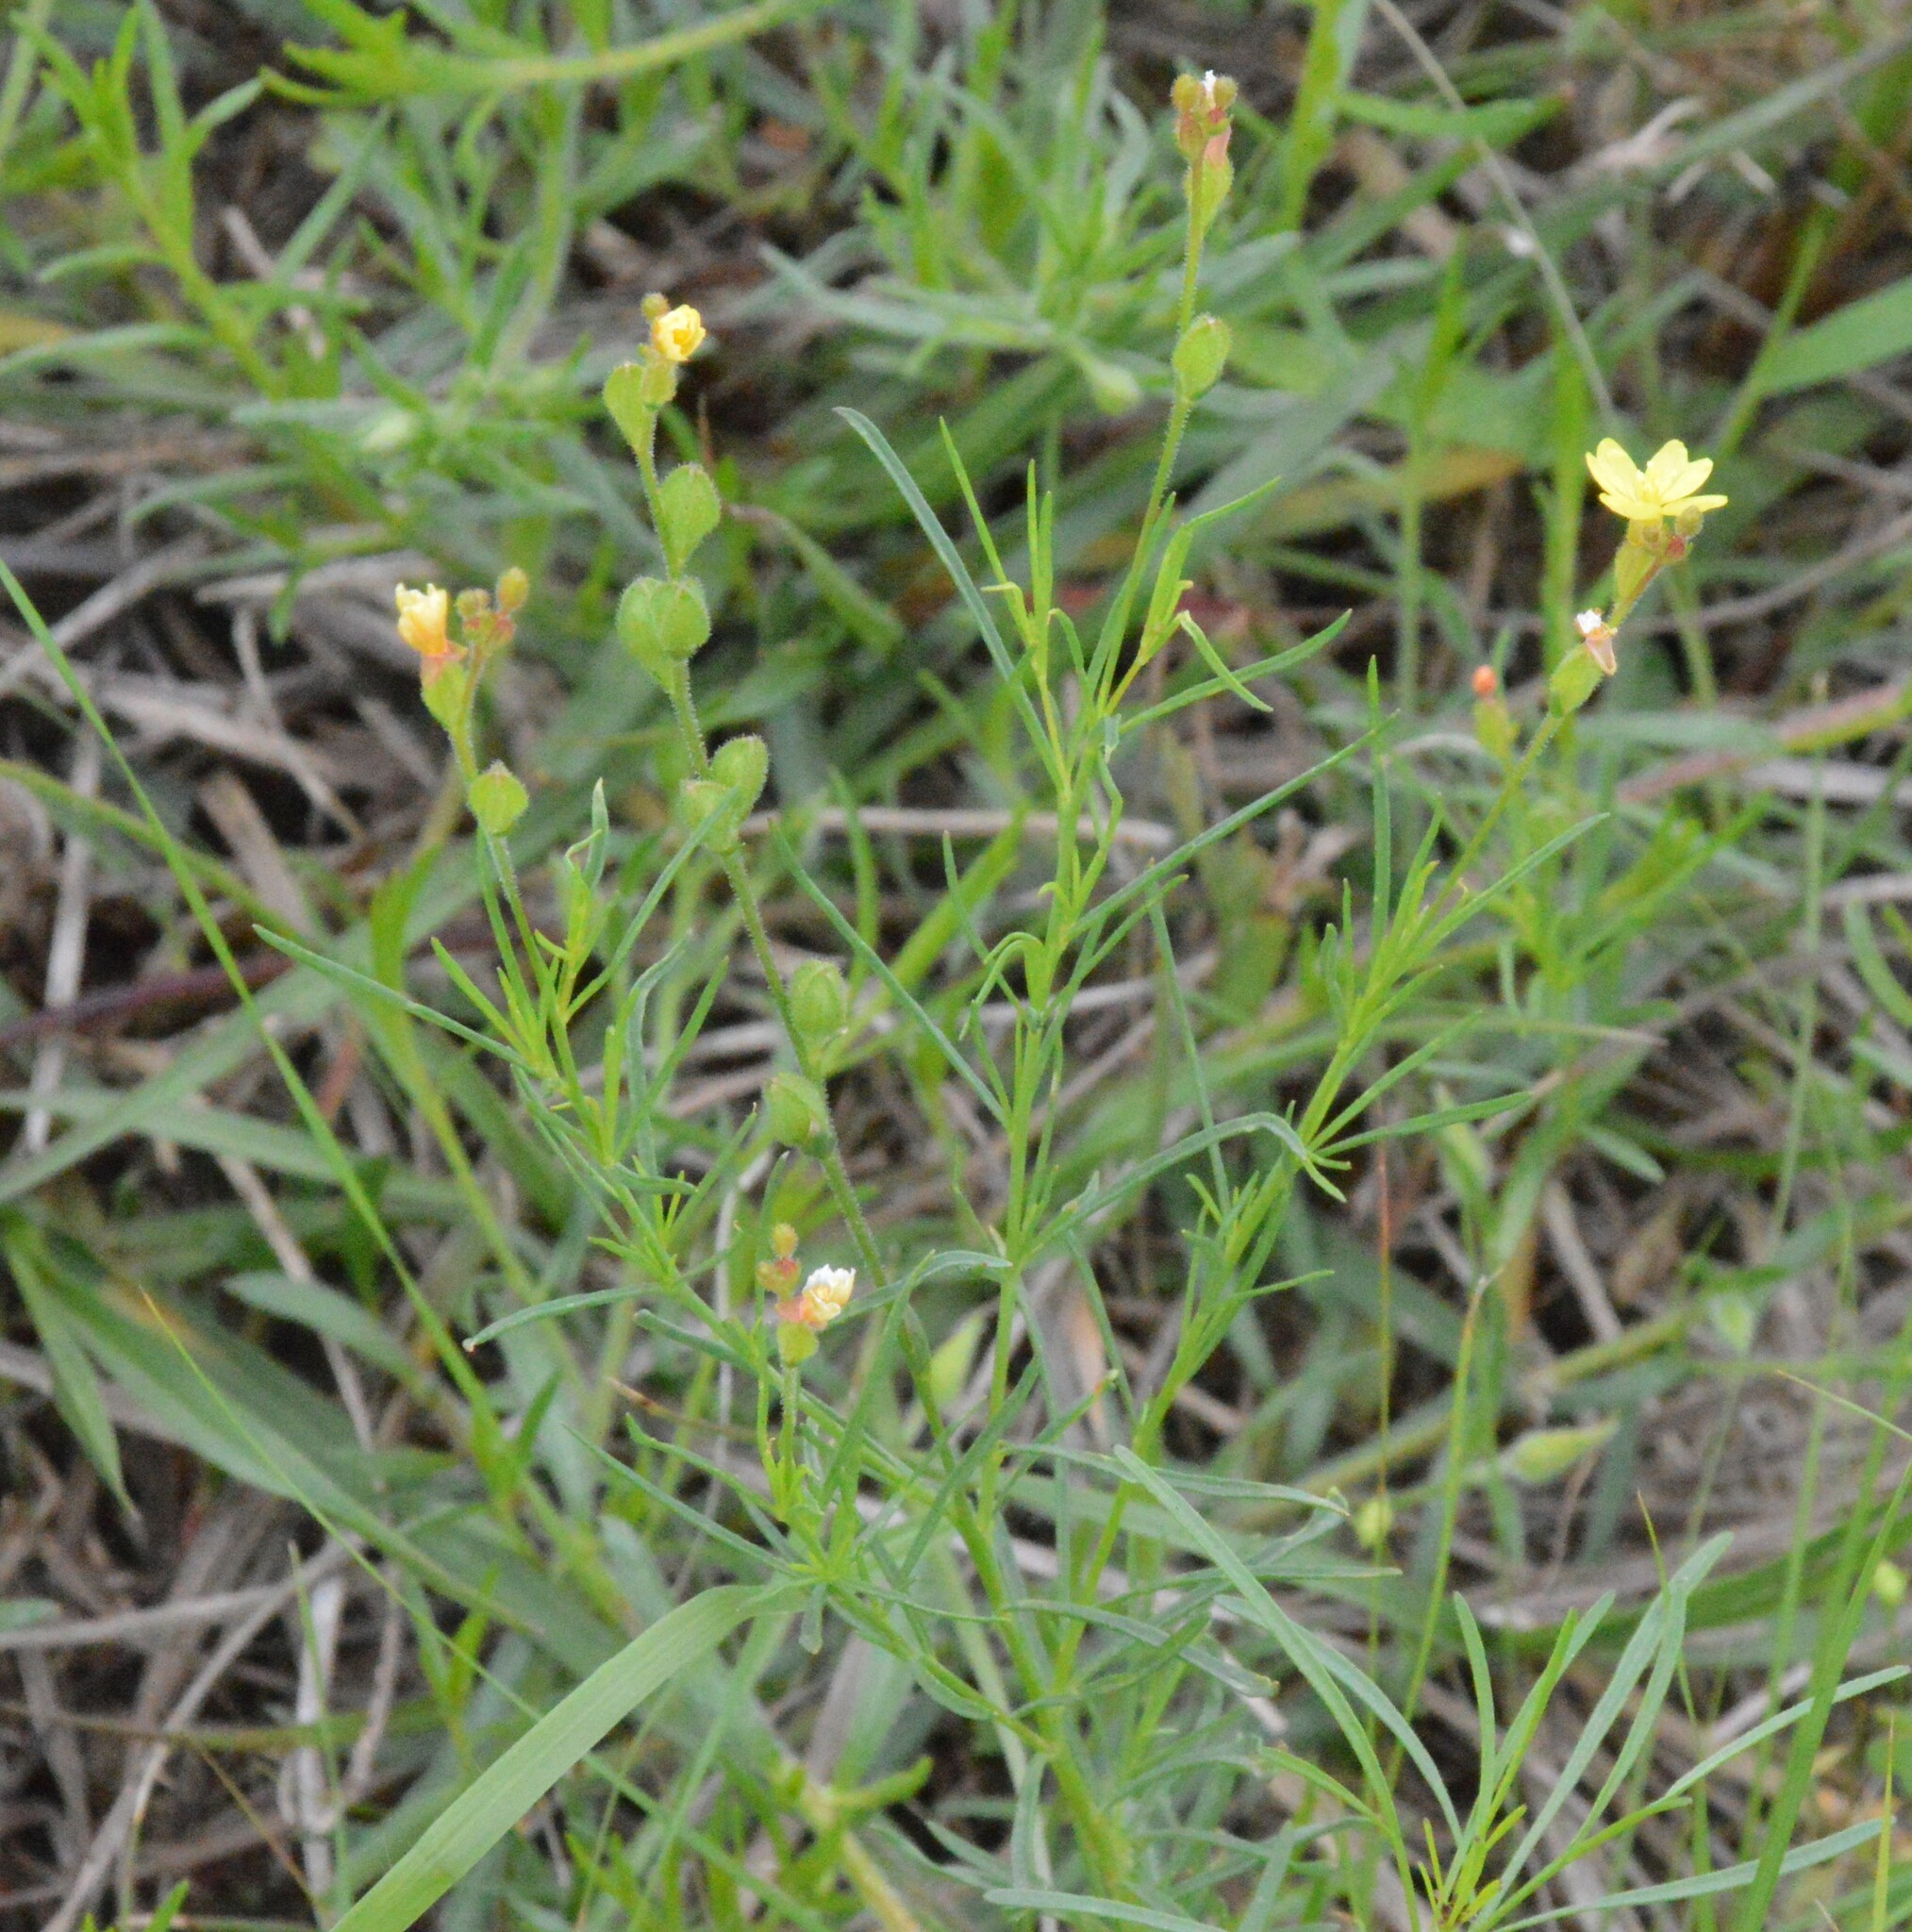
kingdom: Plantae
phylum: Tracheophyta
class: Magnoliopsida
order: Myrtales
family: Onagraceae
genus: Oenothera
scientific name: Oenothera linifolia
